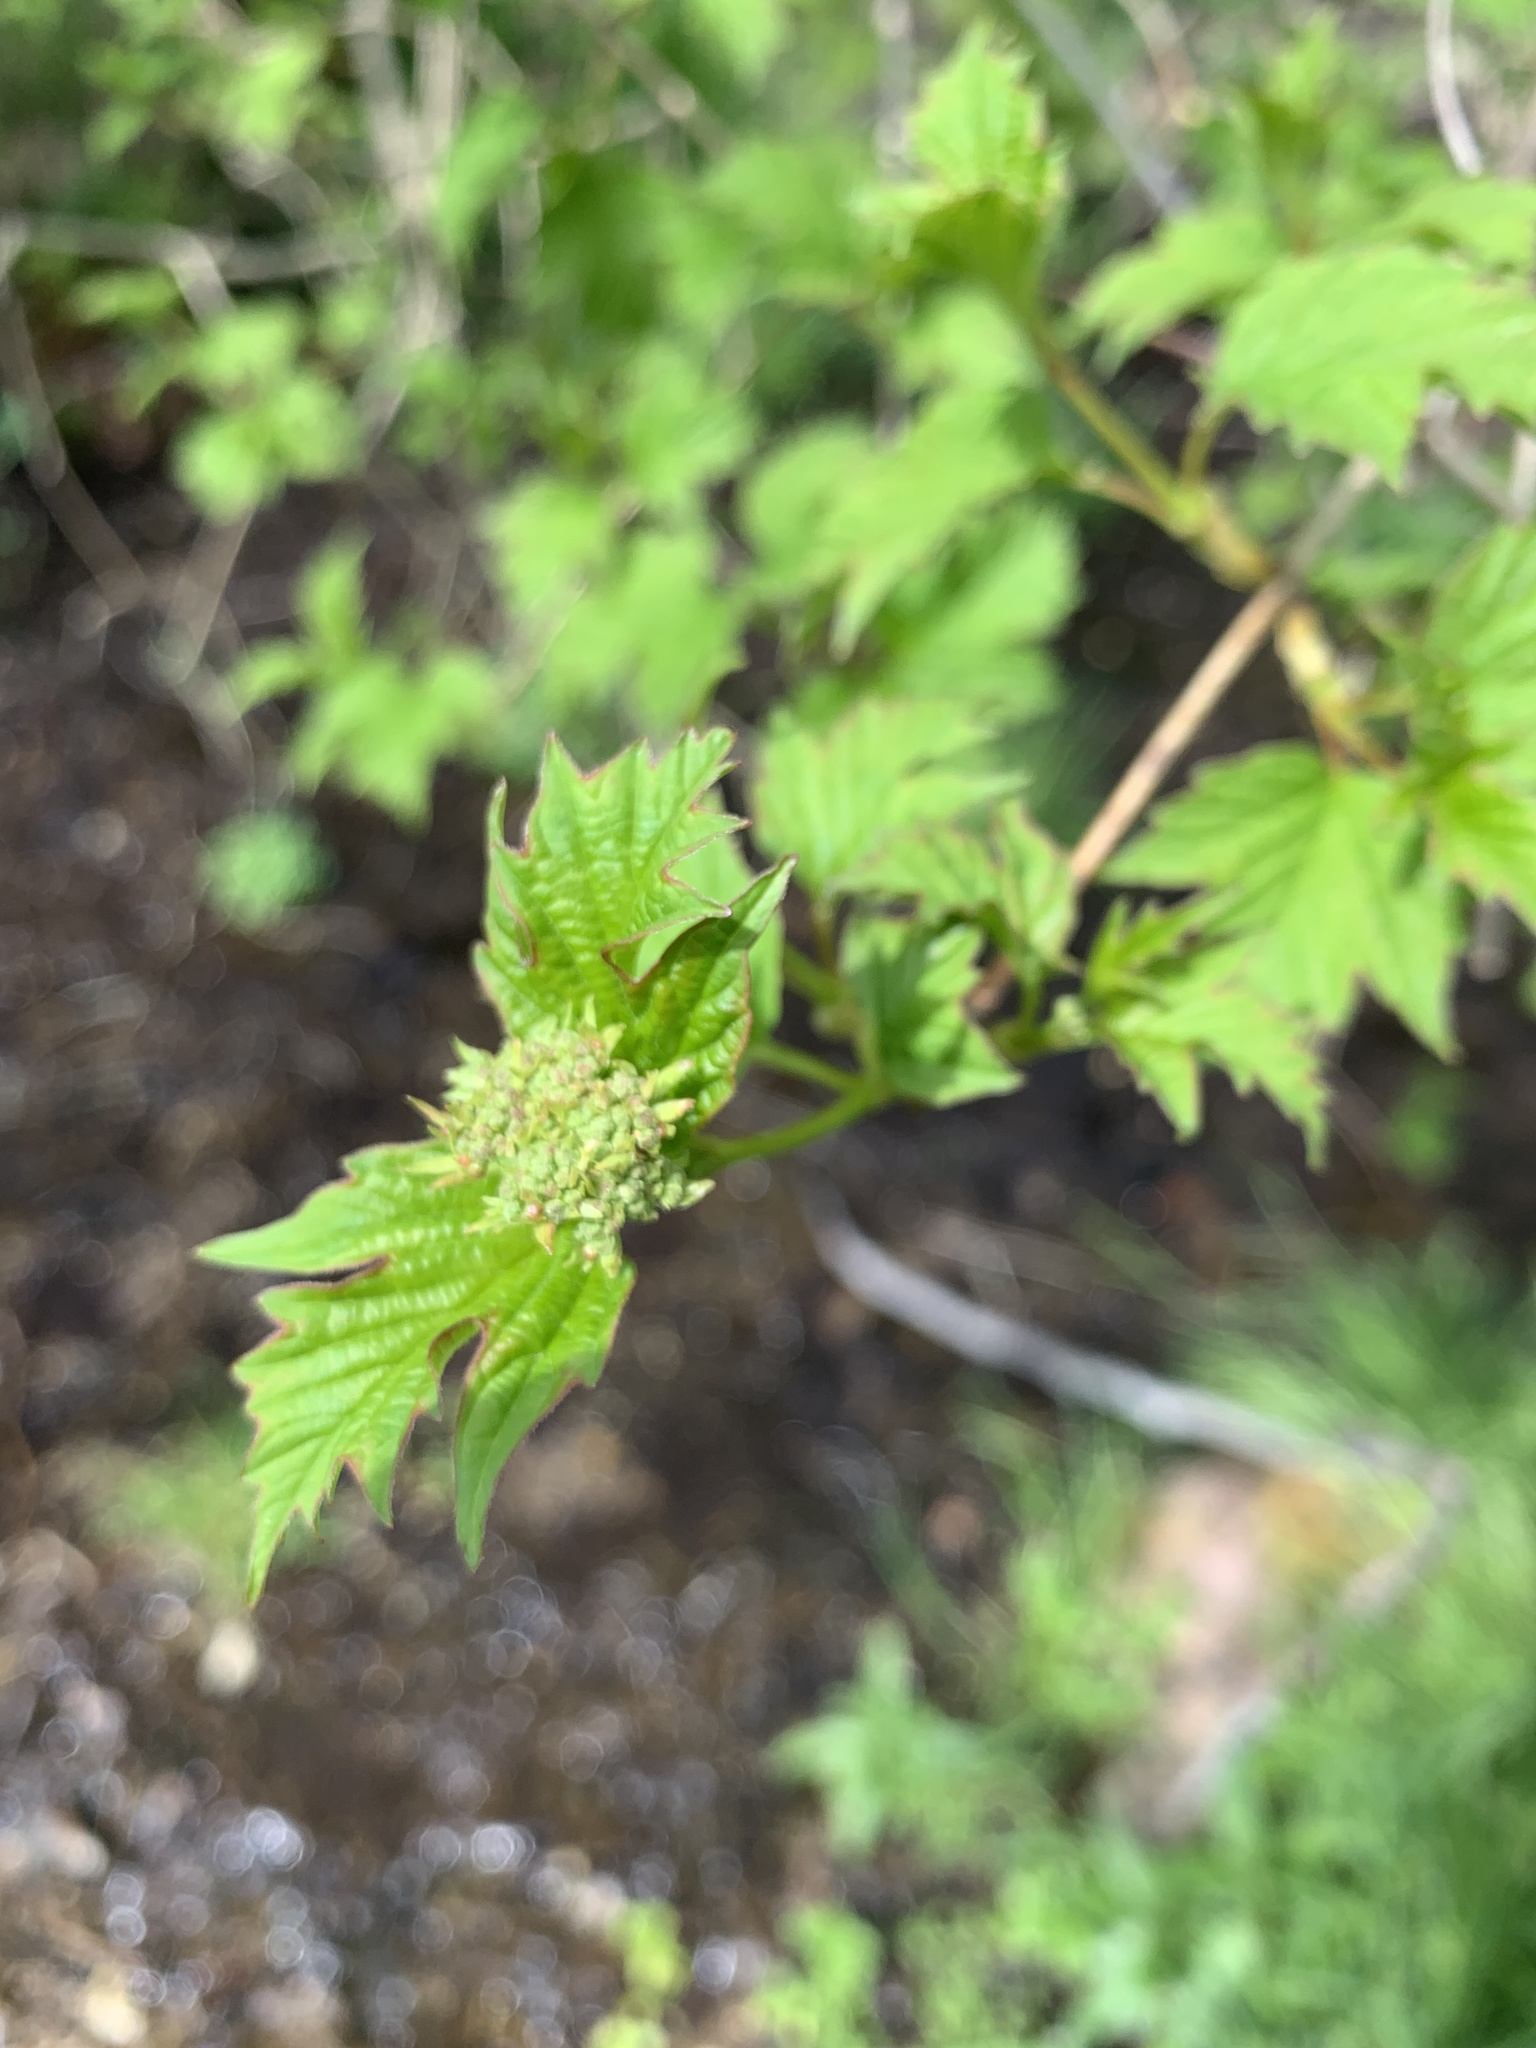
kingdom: Plantae
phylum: Tracheophyta
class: Magnoliopsida
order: Dipsacales
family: Viburnaceae
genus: Viburnum
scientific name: Viburnum opulus
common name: Guelder-rose
